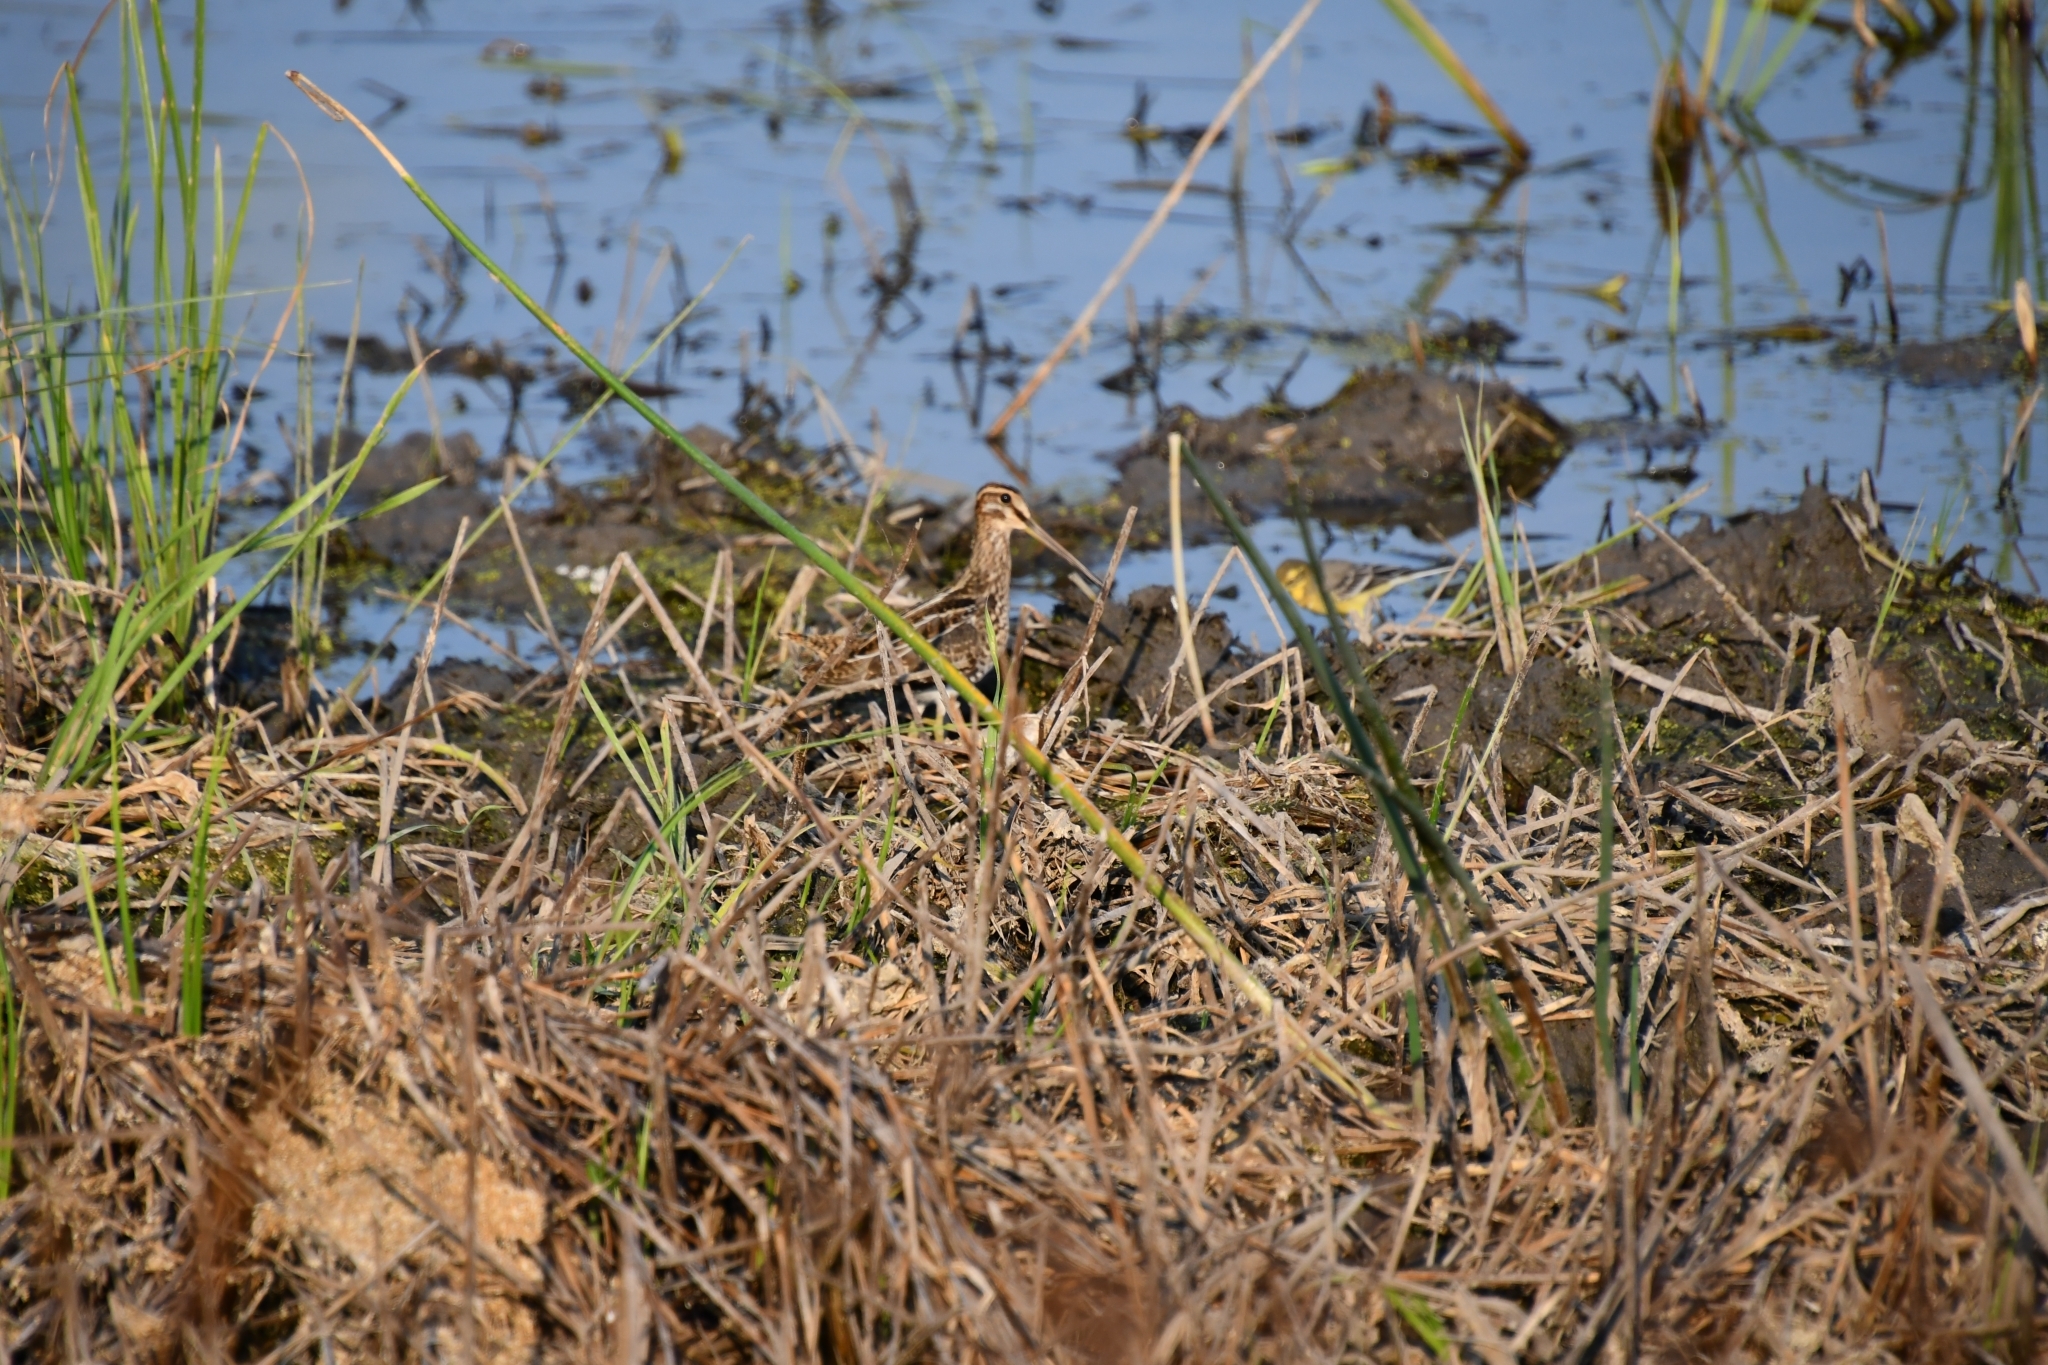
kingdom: Animalia
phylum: Chordata
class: Aves
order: Charadriiformes
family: Scolopacidae
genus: Gallinago
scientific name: Gallinago gallinago
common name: Common snipe
